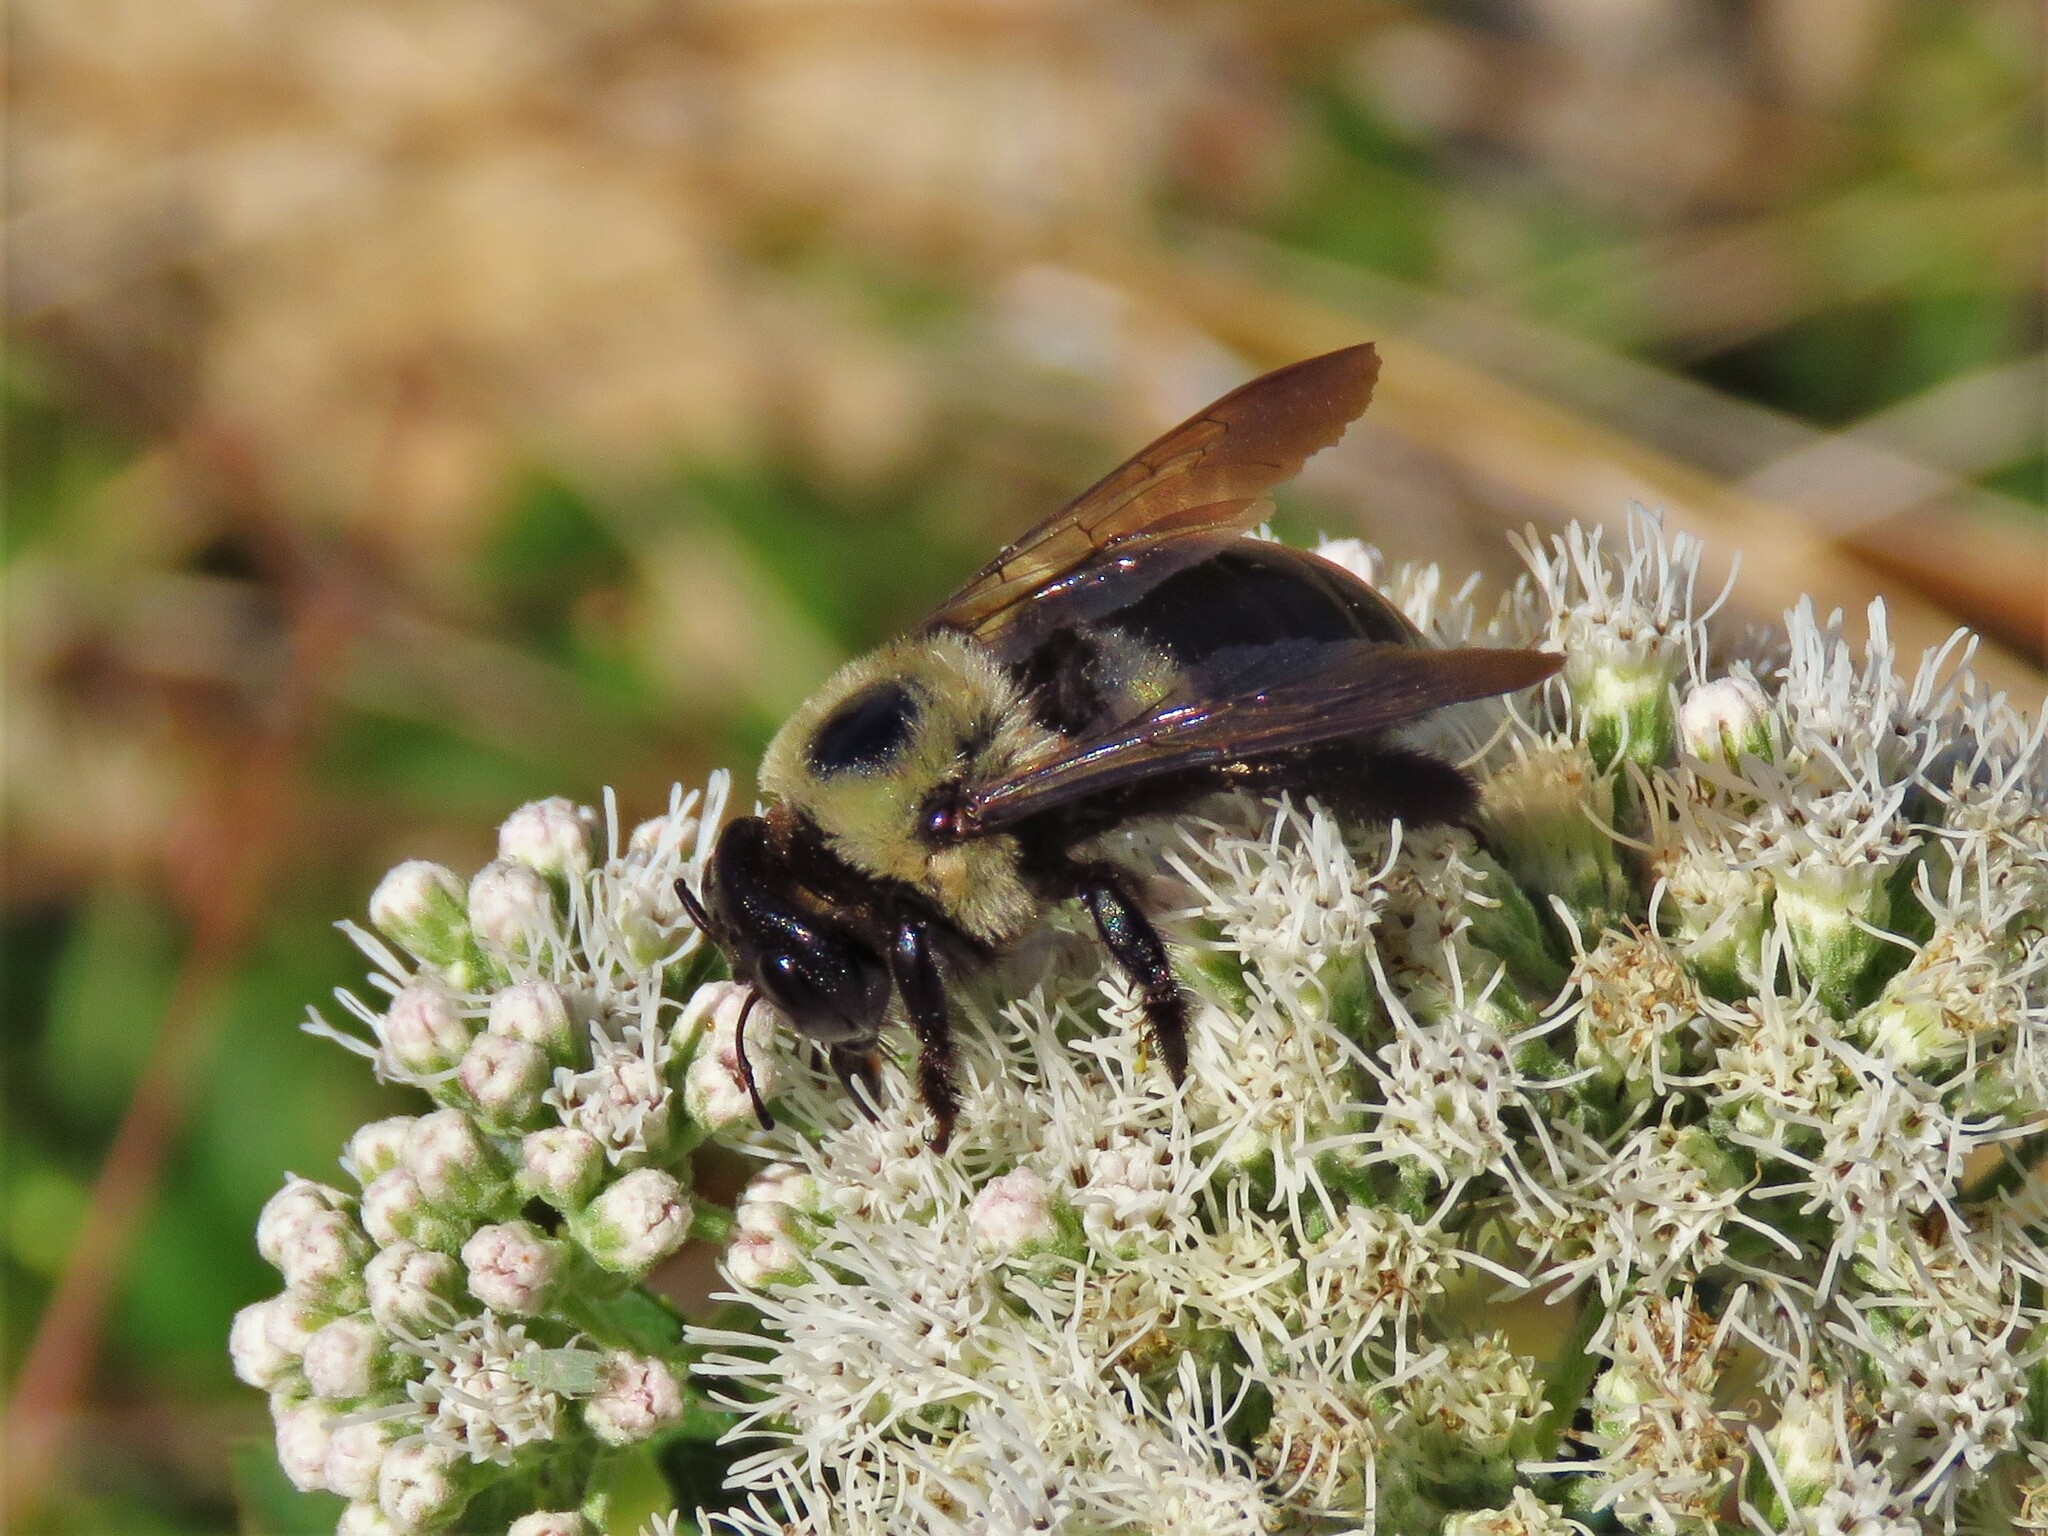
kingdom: Animalia
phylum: Arthropoda
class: Insecta
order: Hymenoptera
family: Apidae
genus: Xylocopa
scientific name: Xylocopa virginica
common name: Carpenter bee
